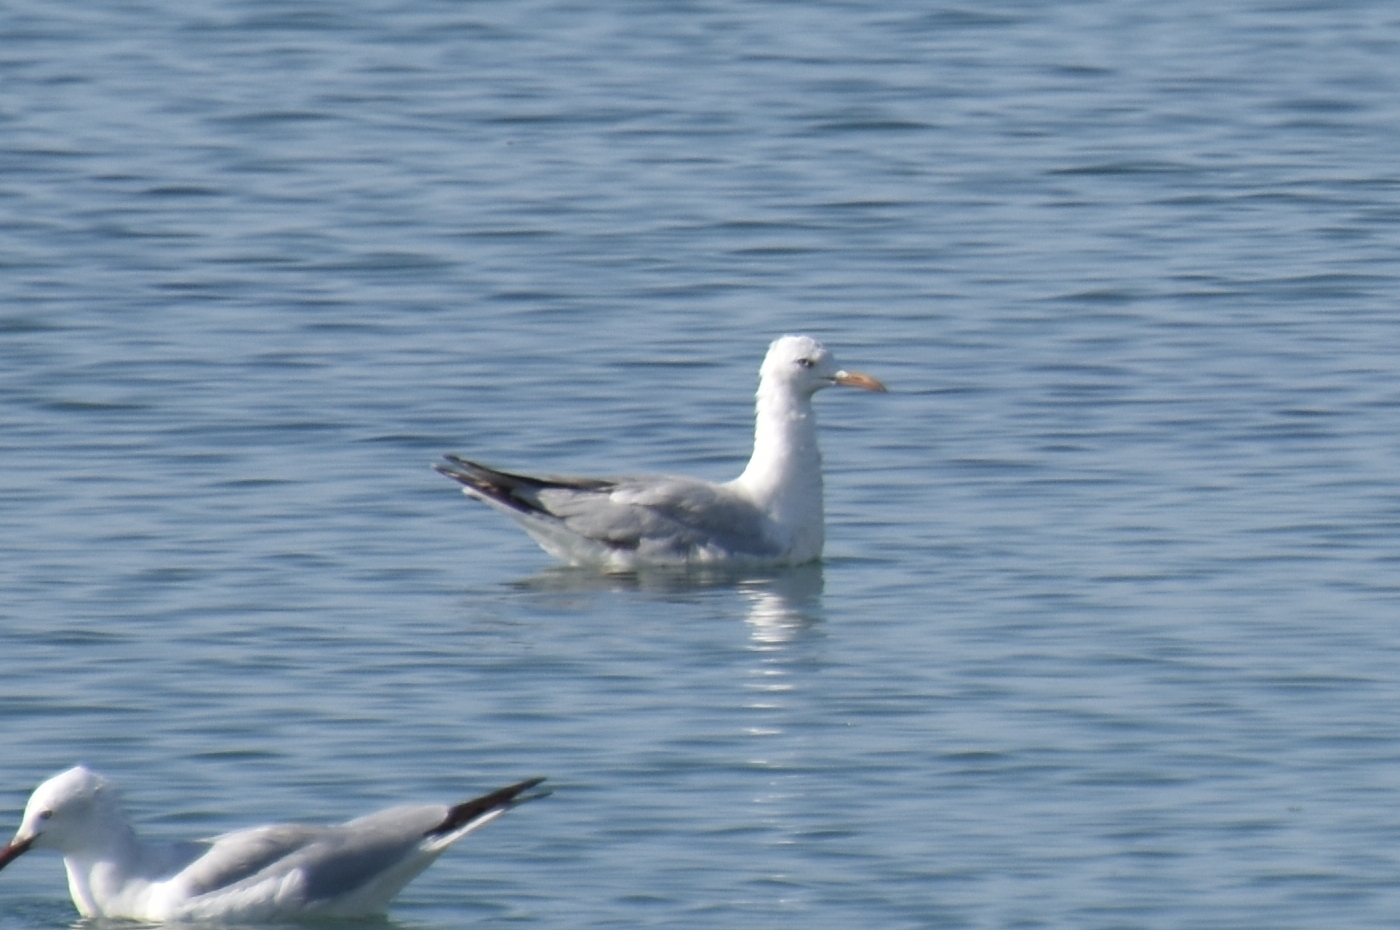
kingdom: Animalia
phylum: Chordata
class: Aves
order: Charadriiformes
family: Laridae
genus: Chroicocephalus
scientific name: Chroicocephalus genei
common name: Slender-billed gull
